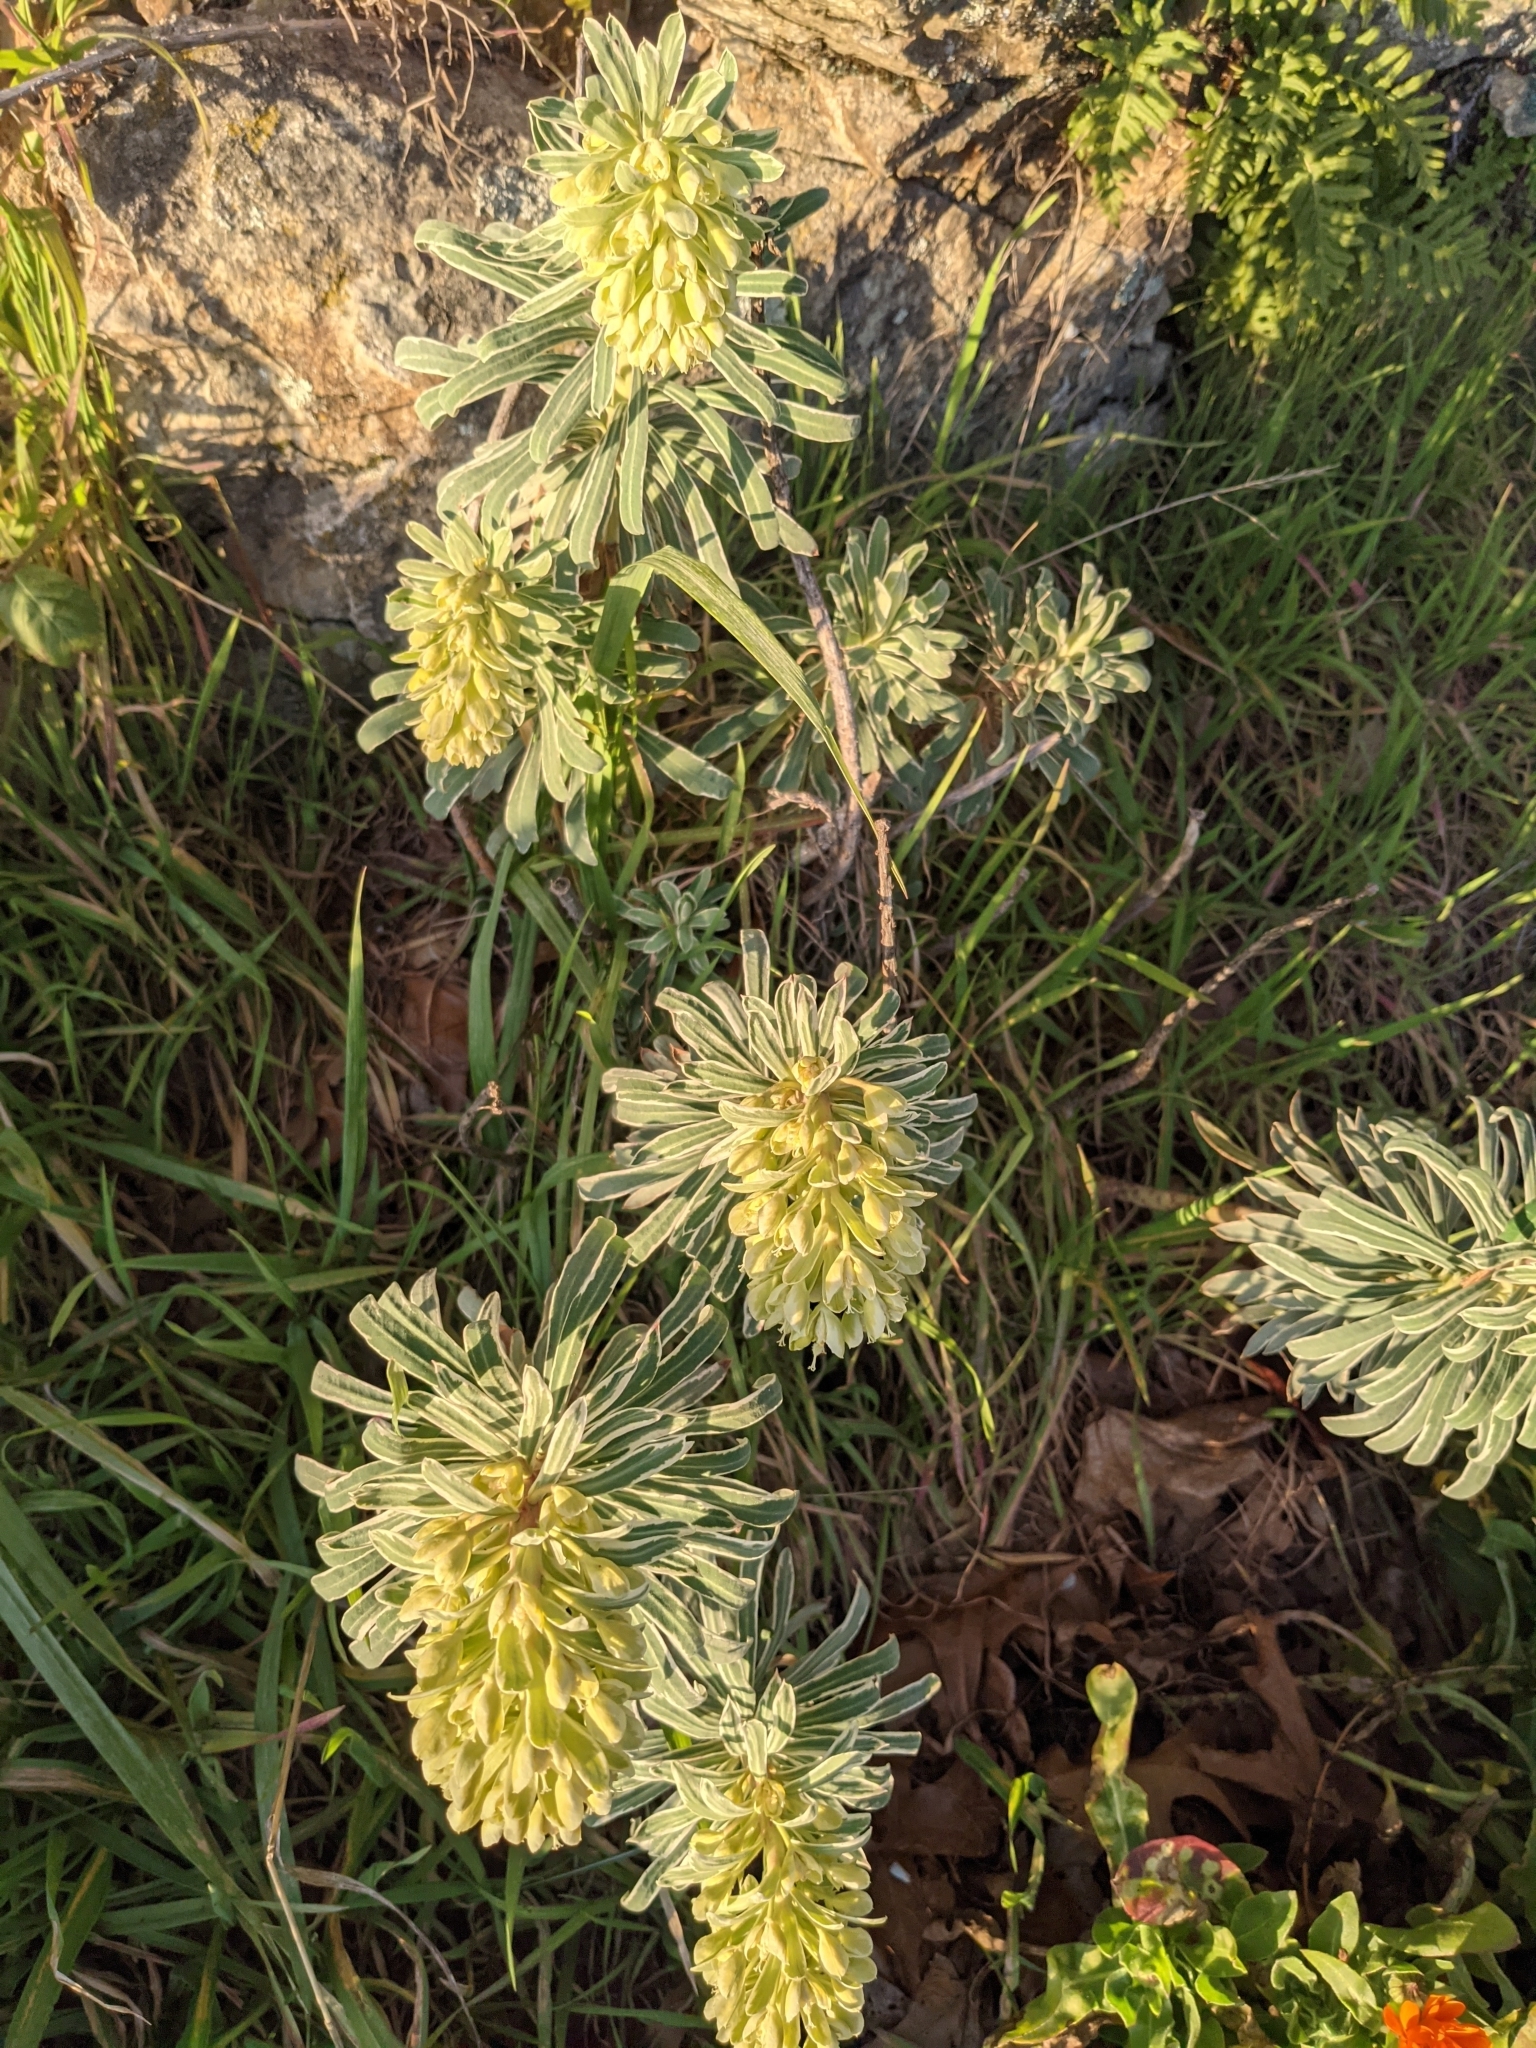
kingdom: Plantae
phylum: Tracheophyta
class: Magnoliopsida
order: Malpighiales
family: Euphorbiaceae
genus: Euphorbia
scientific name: Euphorbia cyparissias
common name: Cypress spurge
